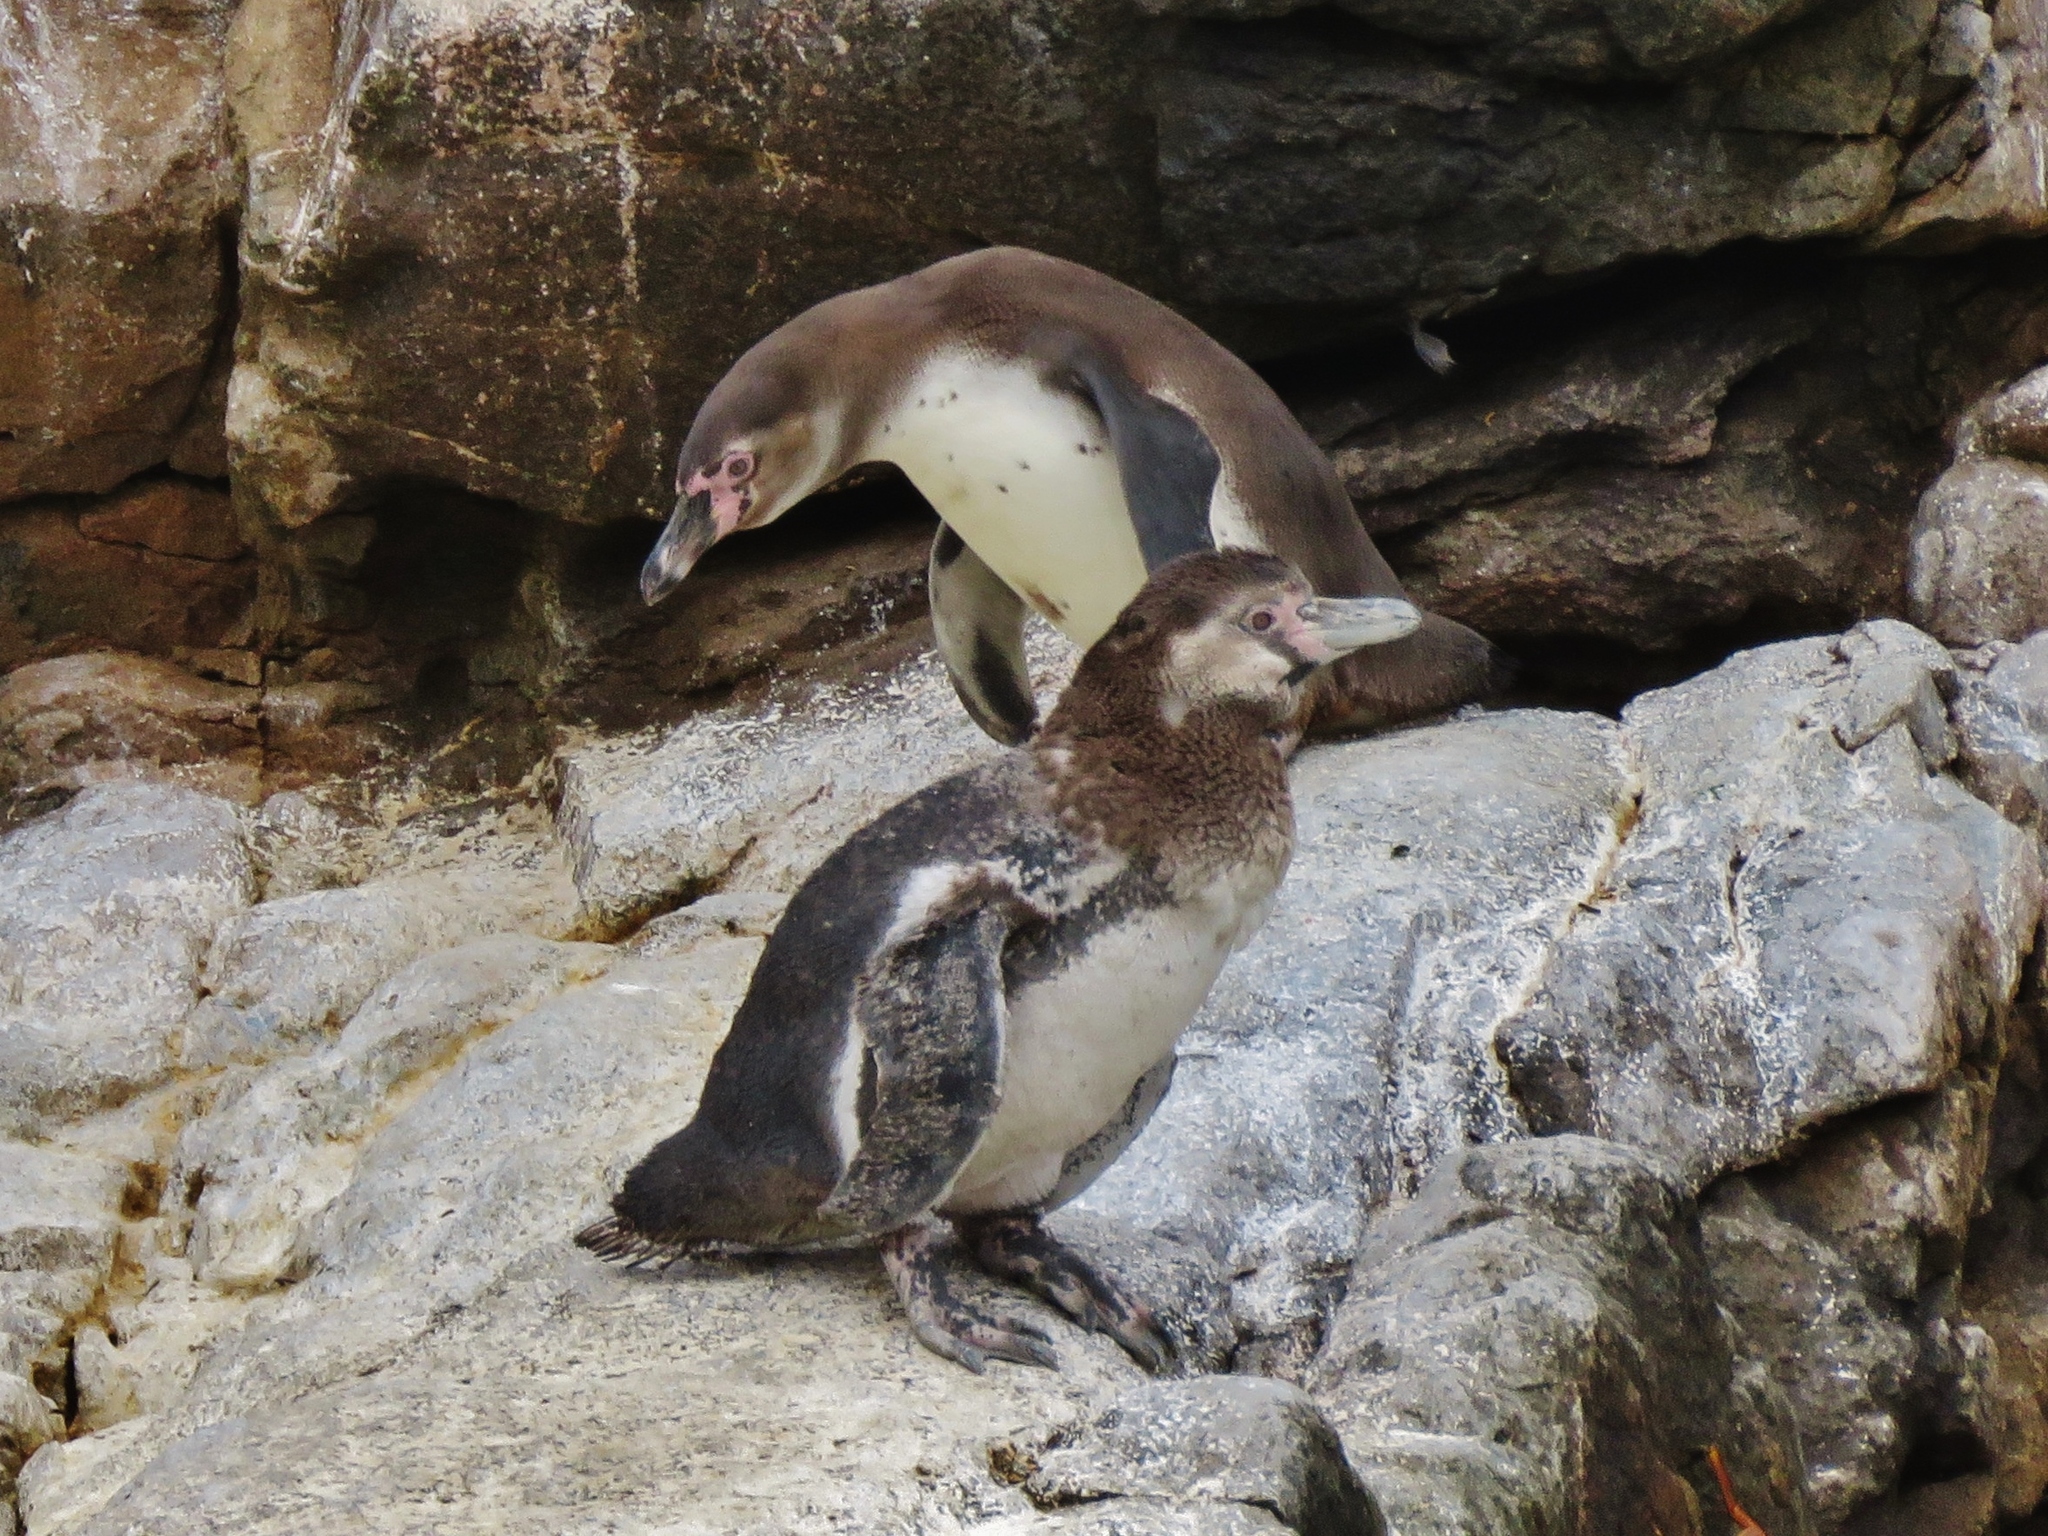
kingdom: Animalia
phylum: Chordata
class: Aves
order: Sphenisciformes
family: Spheniscidae
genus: Spheniscus
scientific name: Spheniscus humboldti
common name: Humboldt penguin
